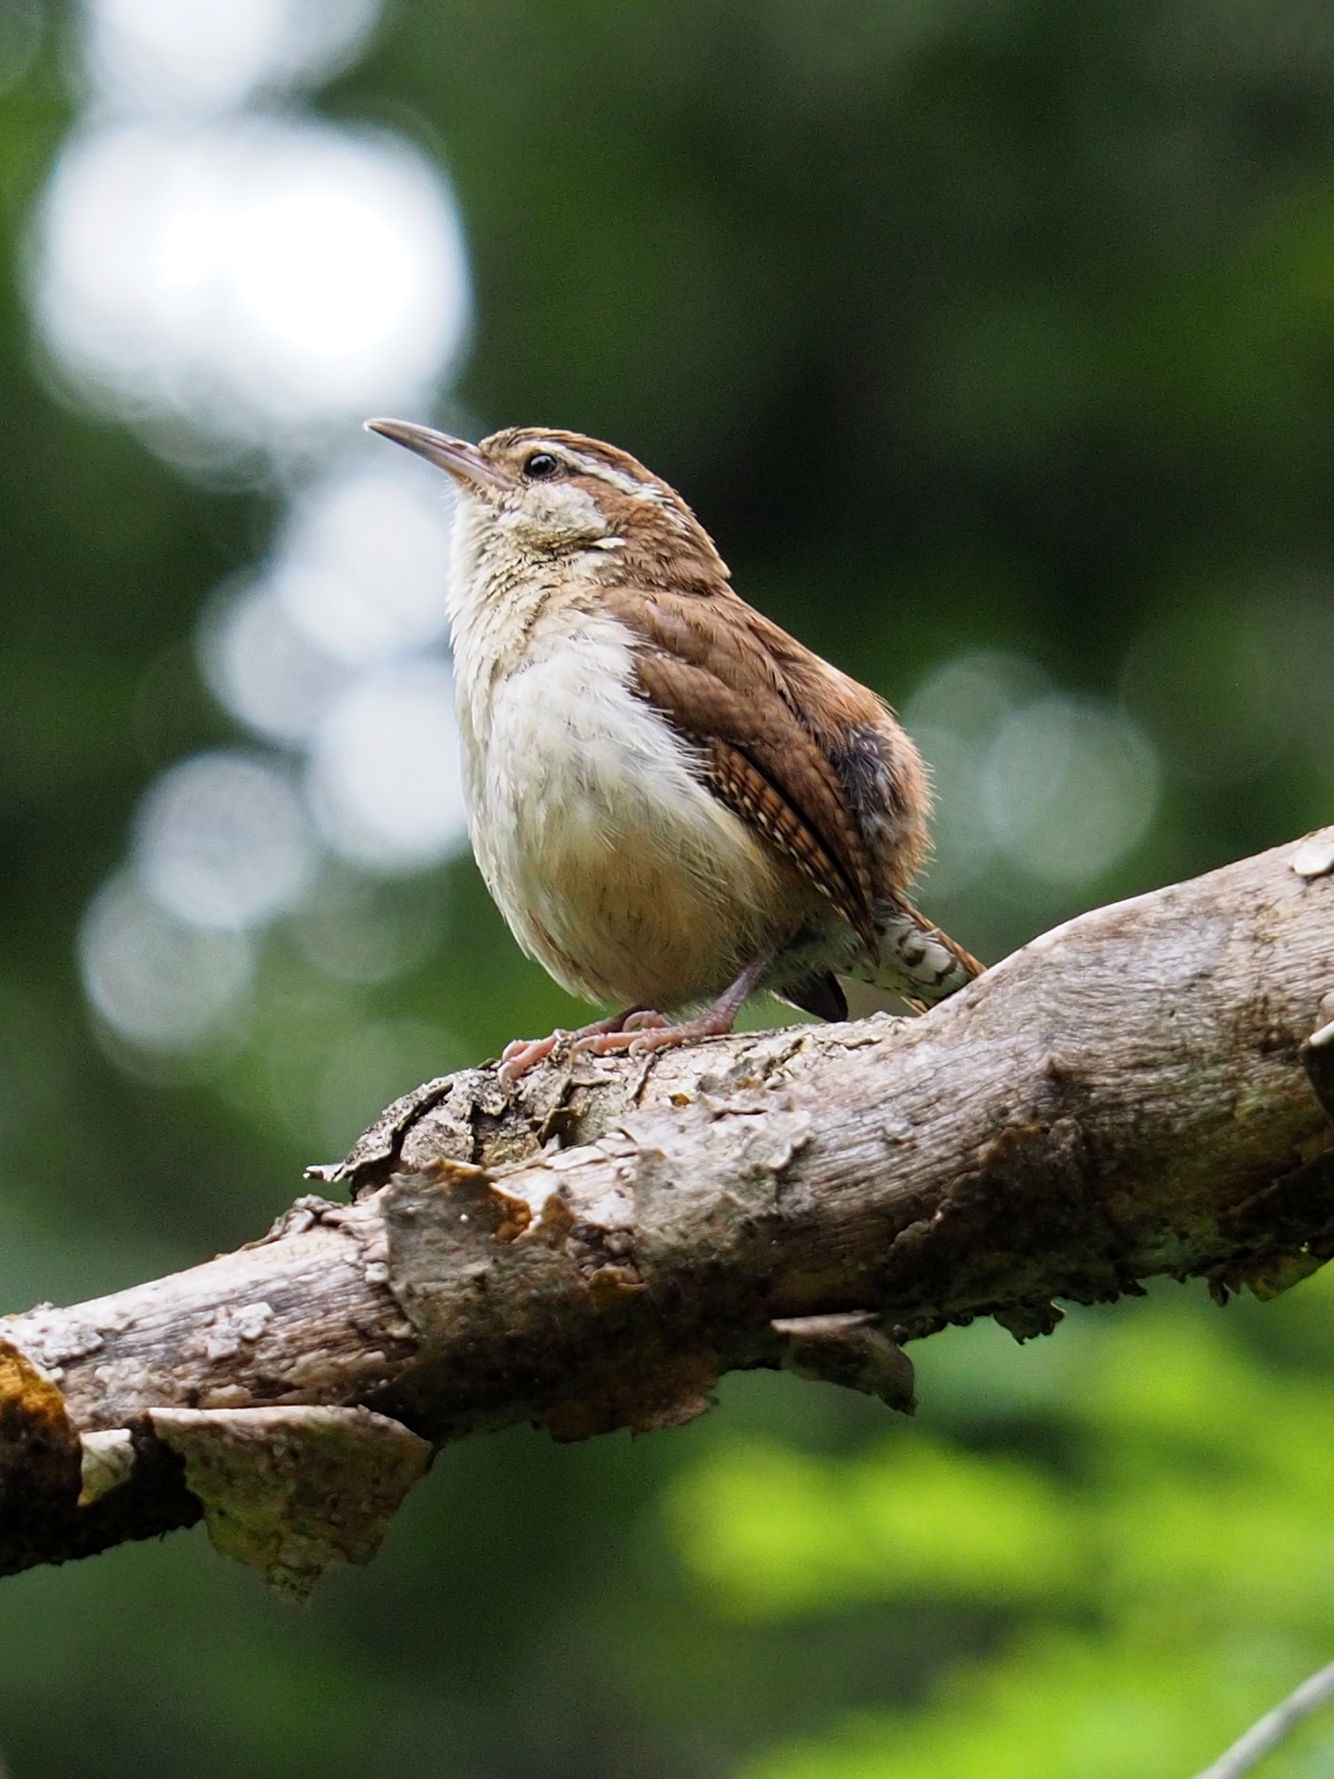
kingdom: Animalia
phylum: Chordata
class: Aves
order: Passeriformes
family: Troglodytidae
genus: Thryothorus
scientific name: Thryothorus ludovicianus
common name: Carolina wren
